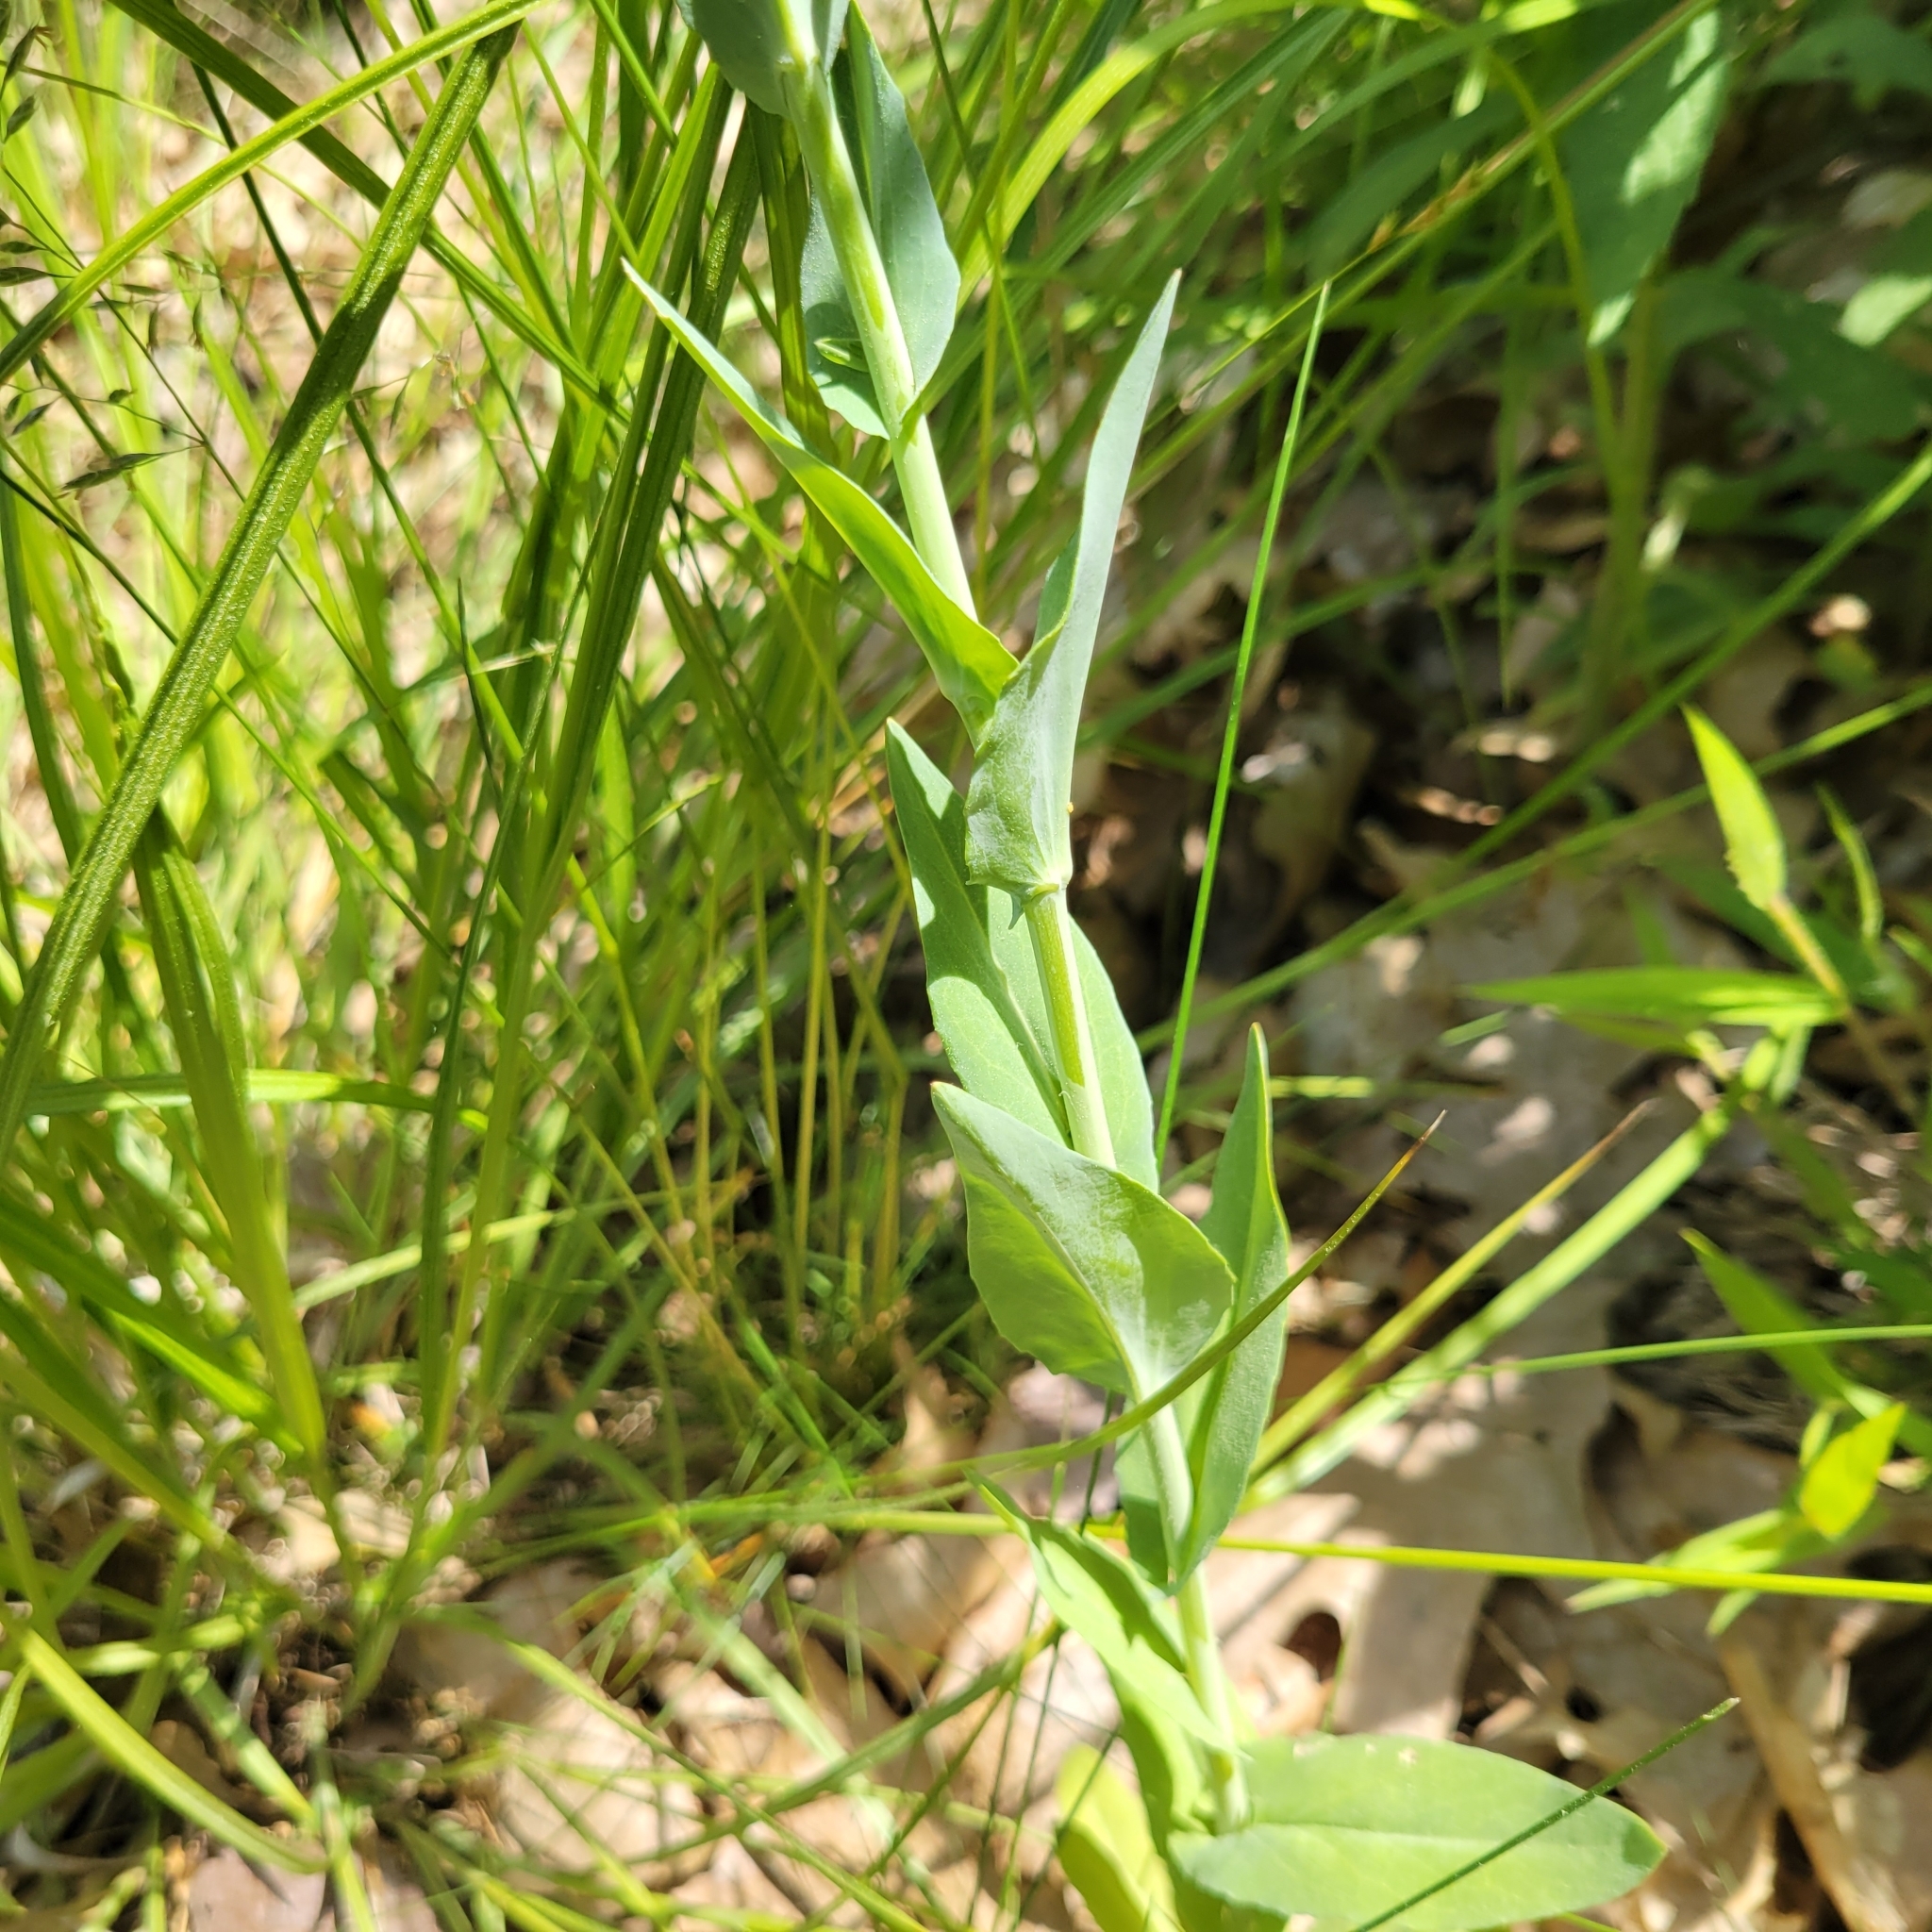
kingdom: Plantae
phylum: Tracheophyta
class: Magnoliopsida
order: Brassicales
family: Brassicaceae
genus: Turritis
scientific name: Turritis glabra
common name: Tower rockcress
